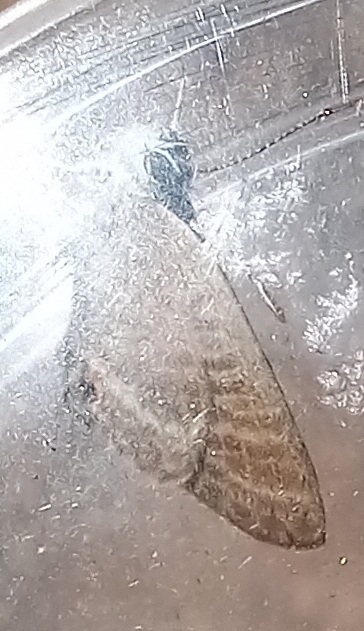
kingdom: Animalia
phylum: Arthropoda
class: Insecta
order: Lepidoptera
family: Lycaenidae
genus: Lampides
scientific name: Lampides boeticus
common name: Long-tailed blue
